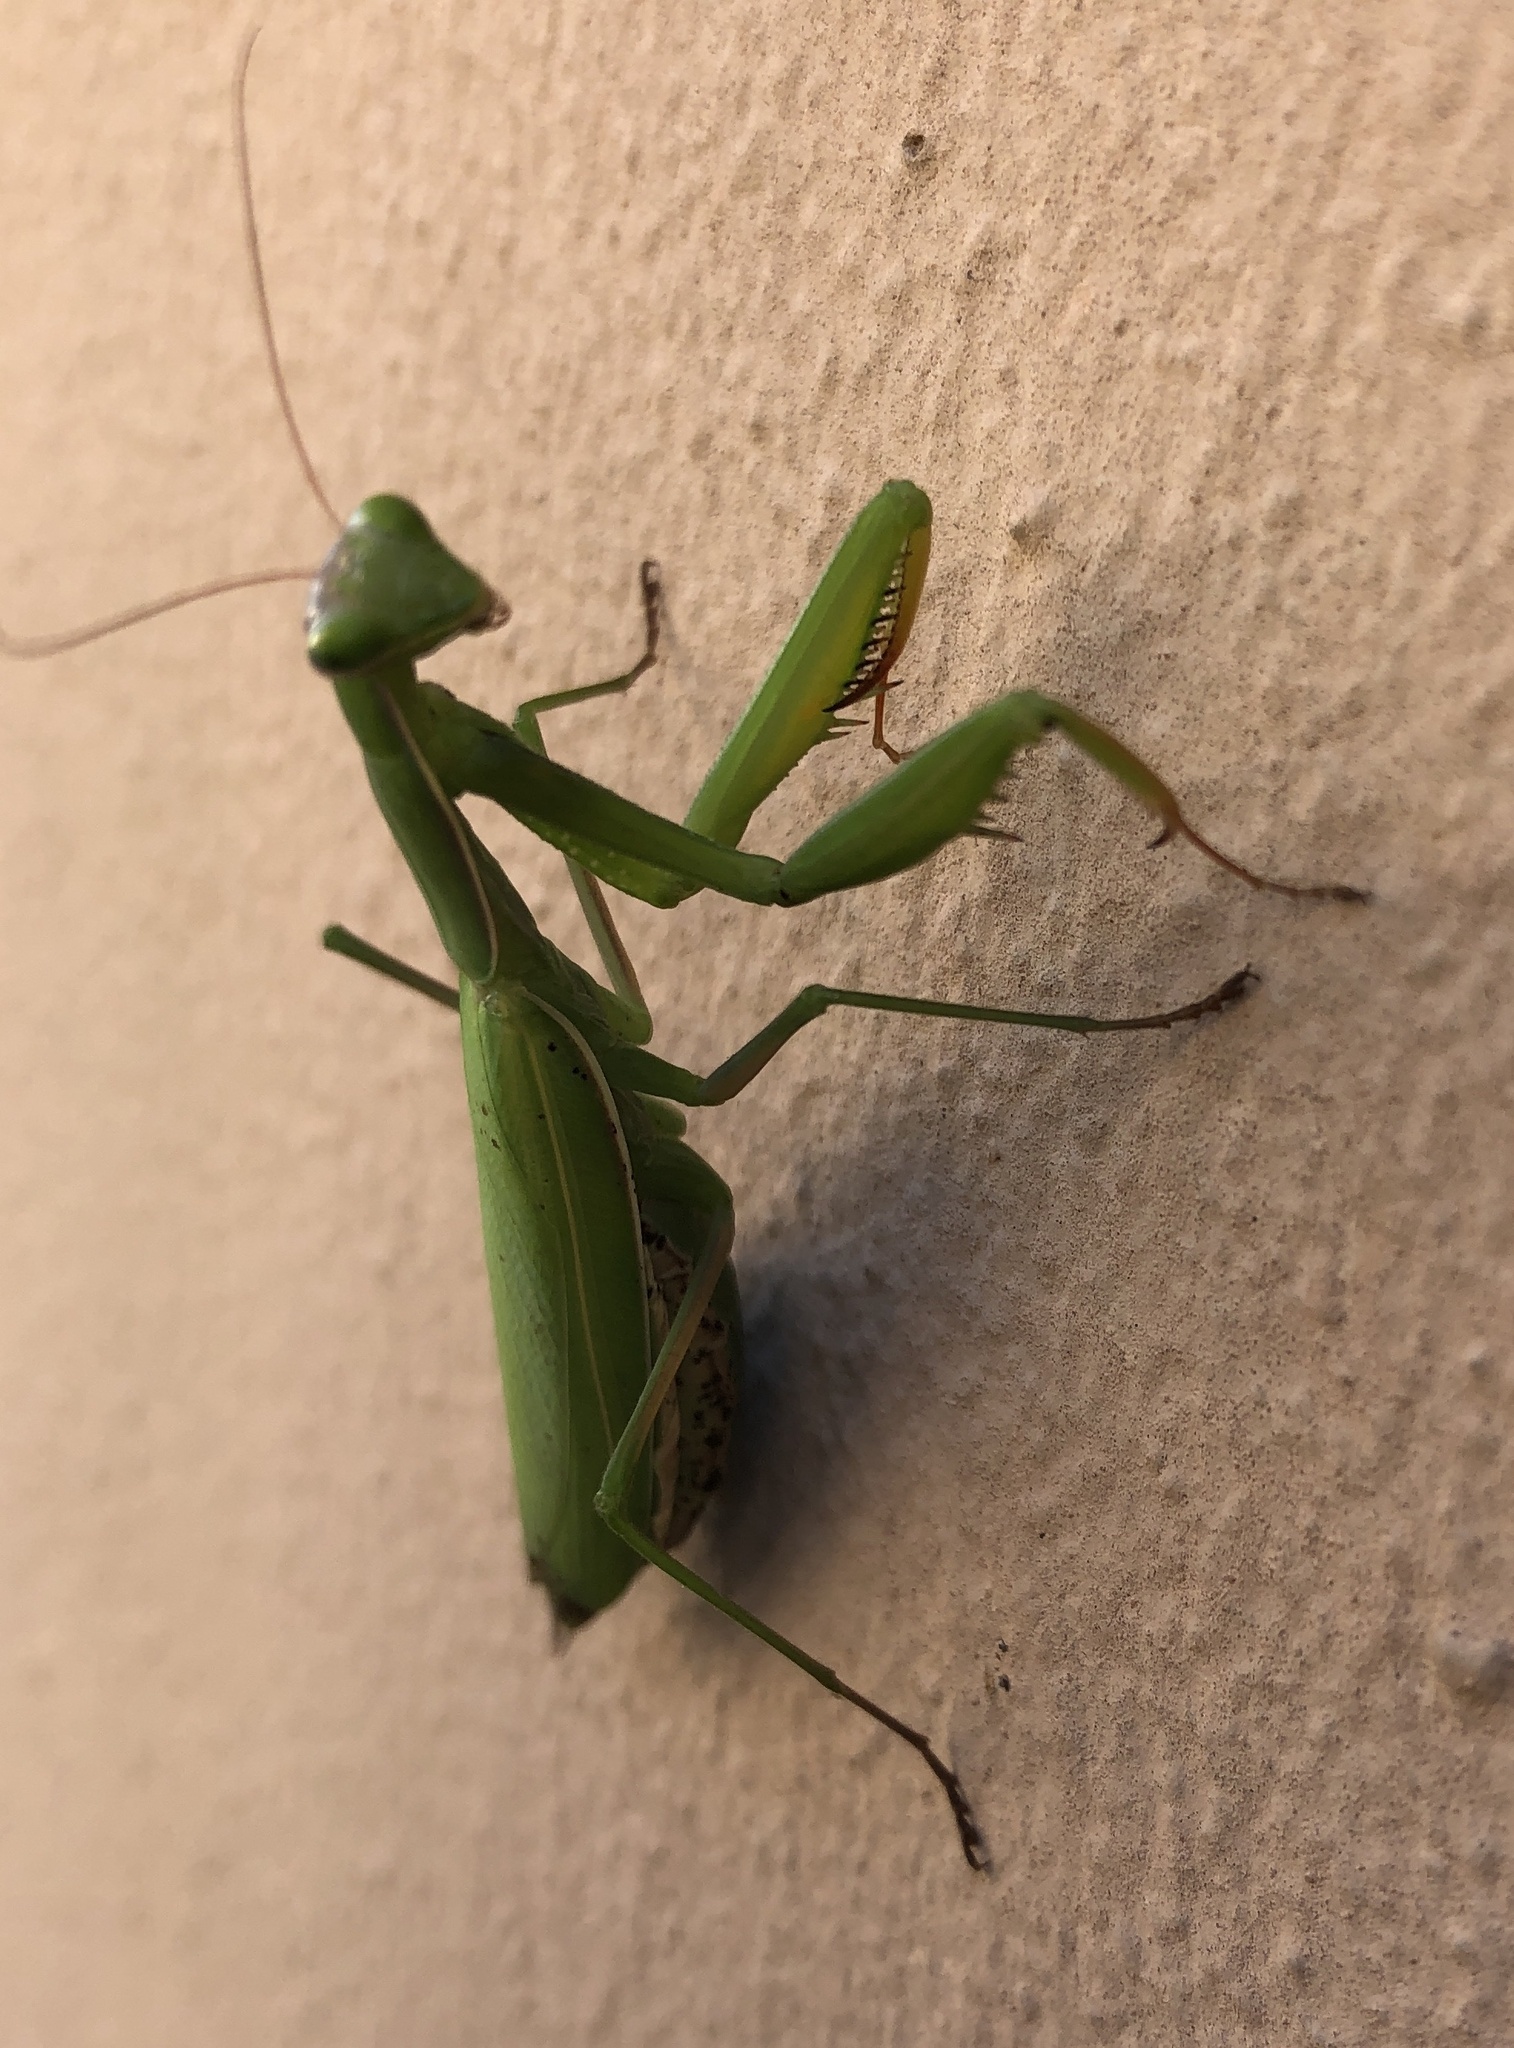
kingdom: Animalia
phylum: Arthropoda
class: Insecta
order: Mantodea
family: Mantidae
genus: Mantis
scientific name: Mantis religiosa
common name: Praying mantis
